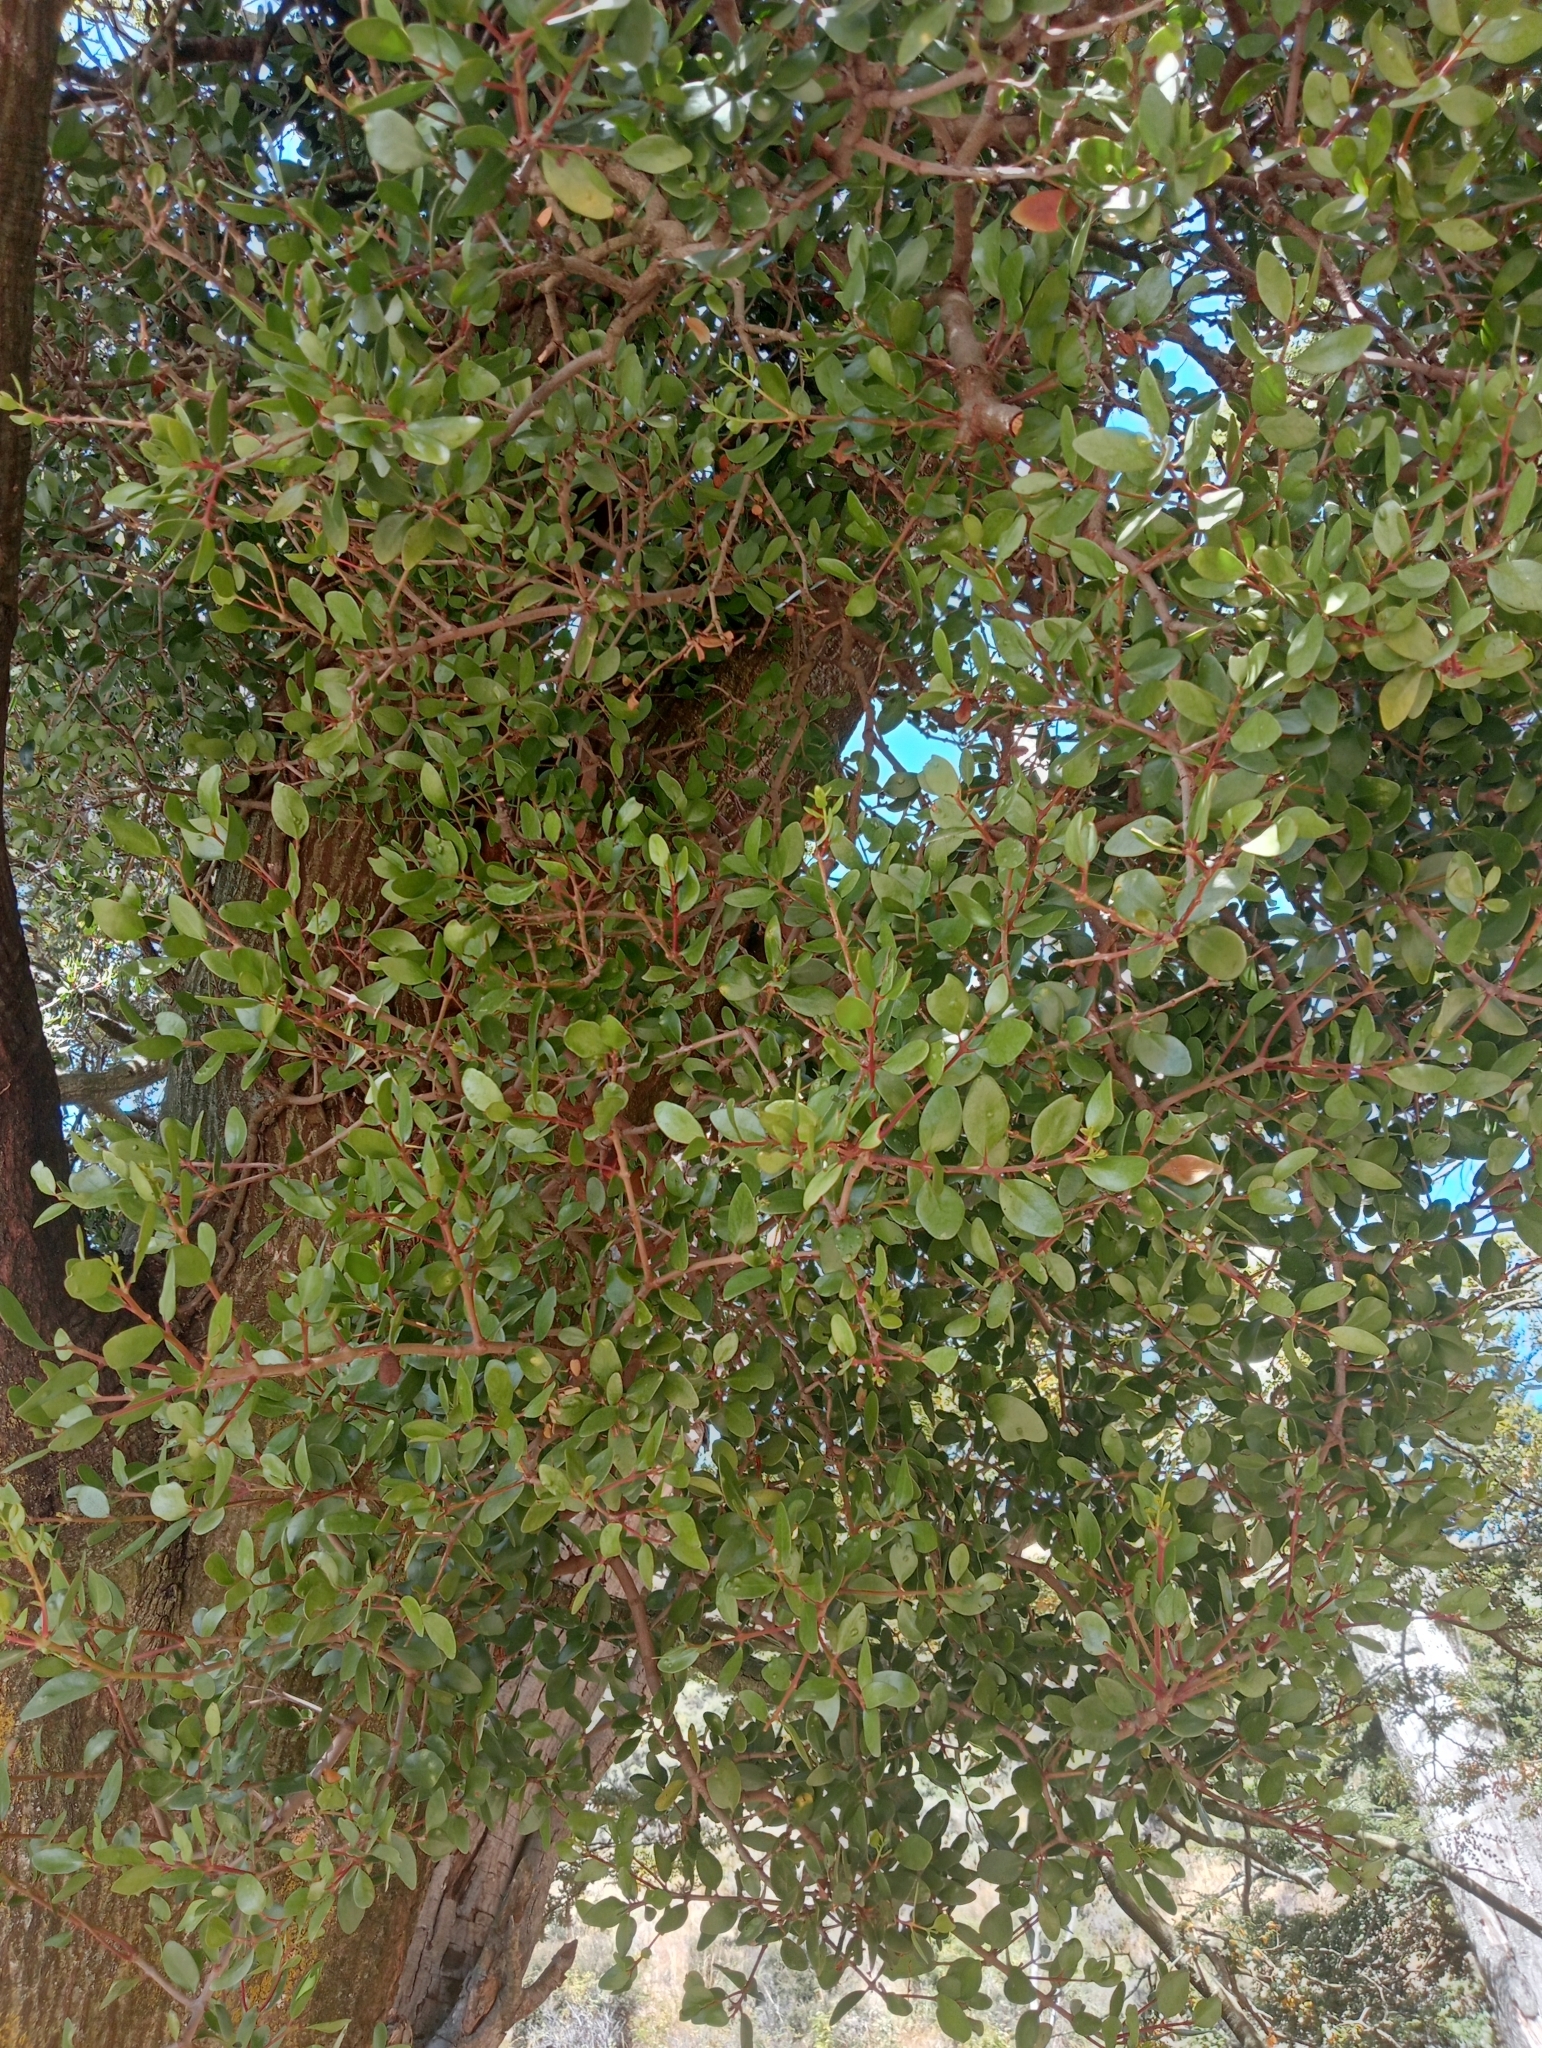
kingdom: Plantae
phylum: Tracheophyta
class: Magnoliopsida
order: Santalales
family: Loranthaceae
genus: Peraxilla
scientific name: Peraxilla tetrapetala
